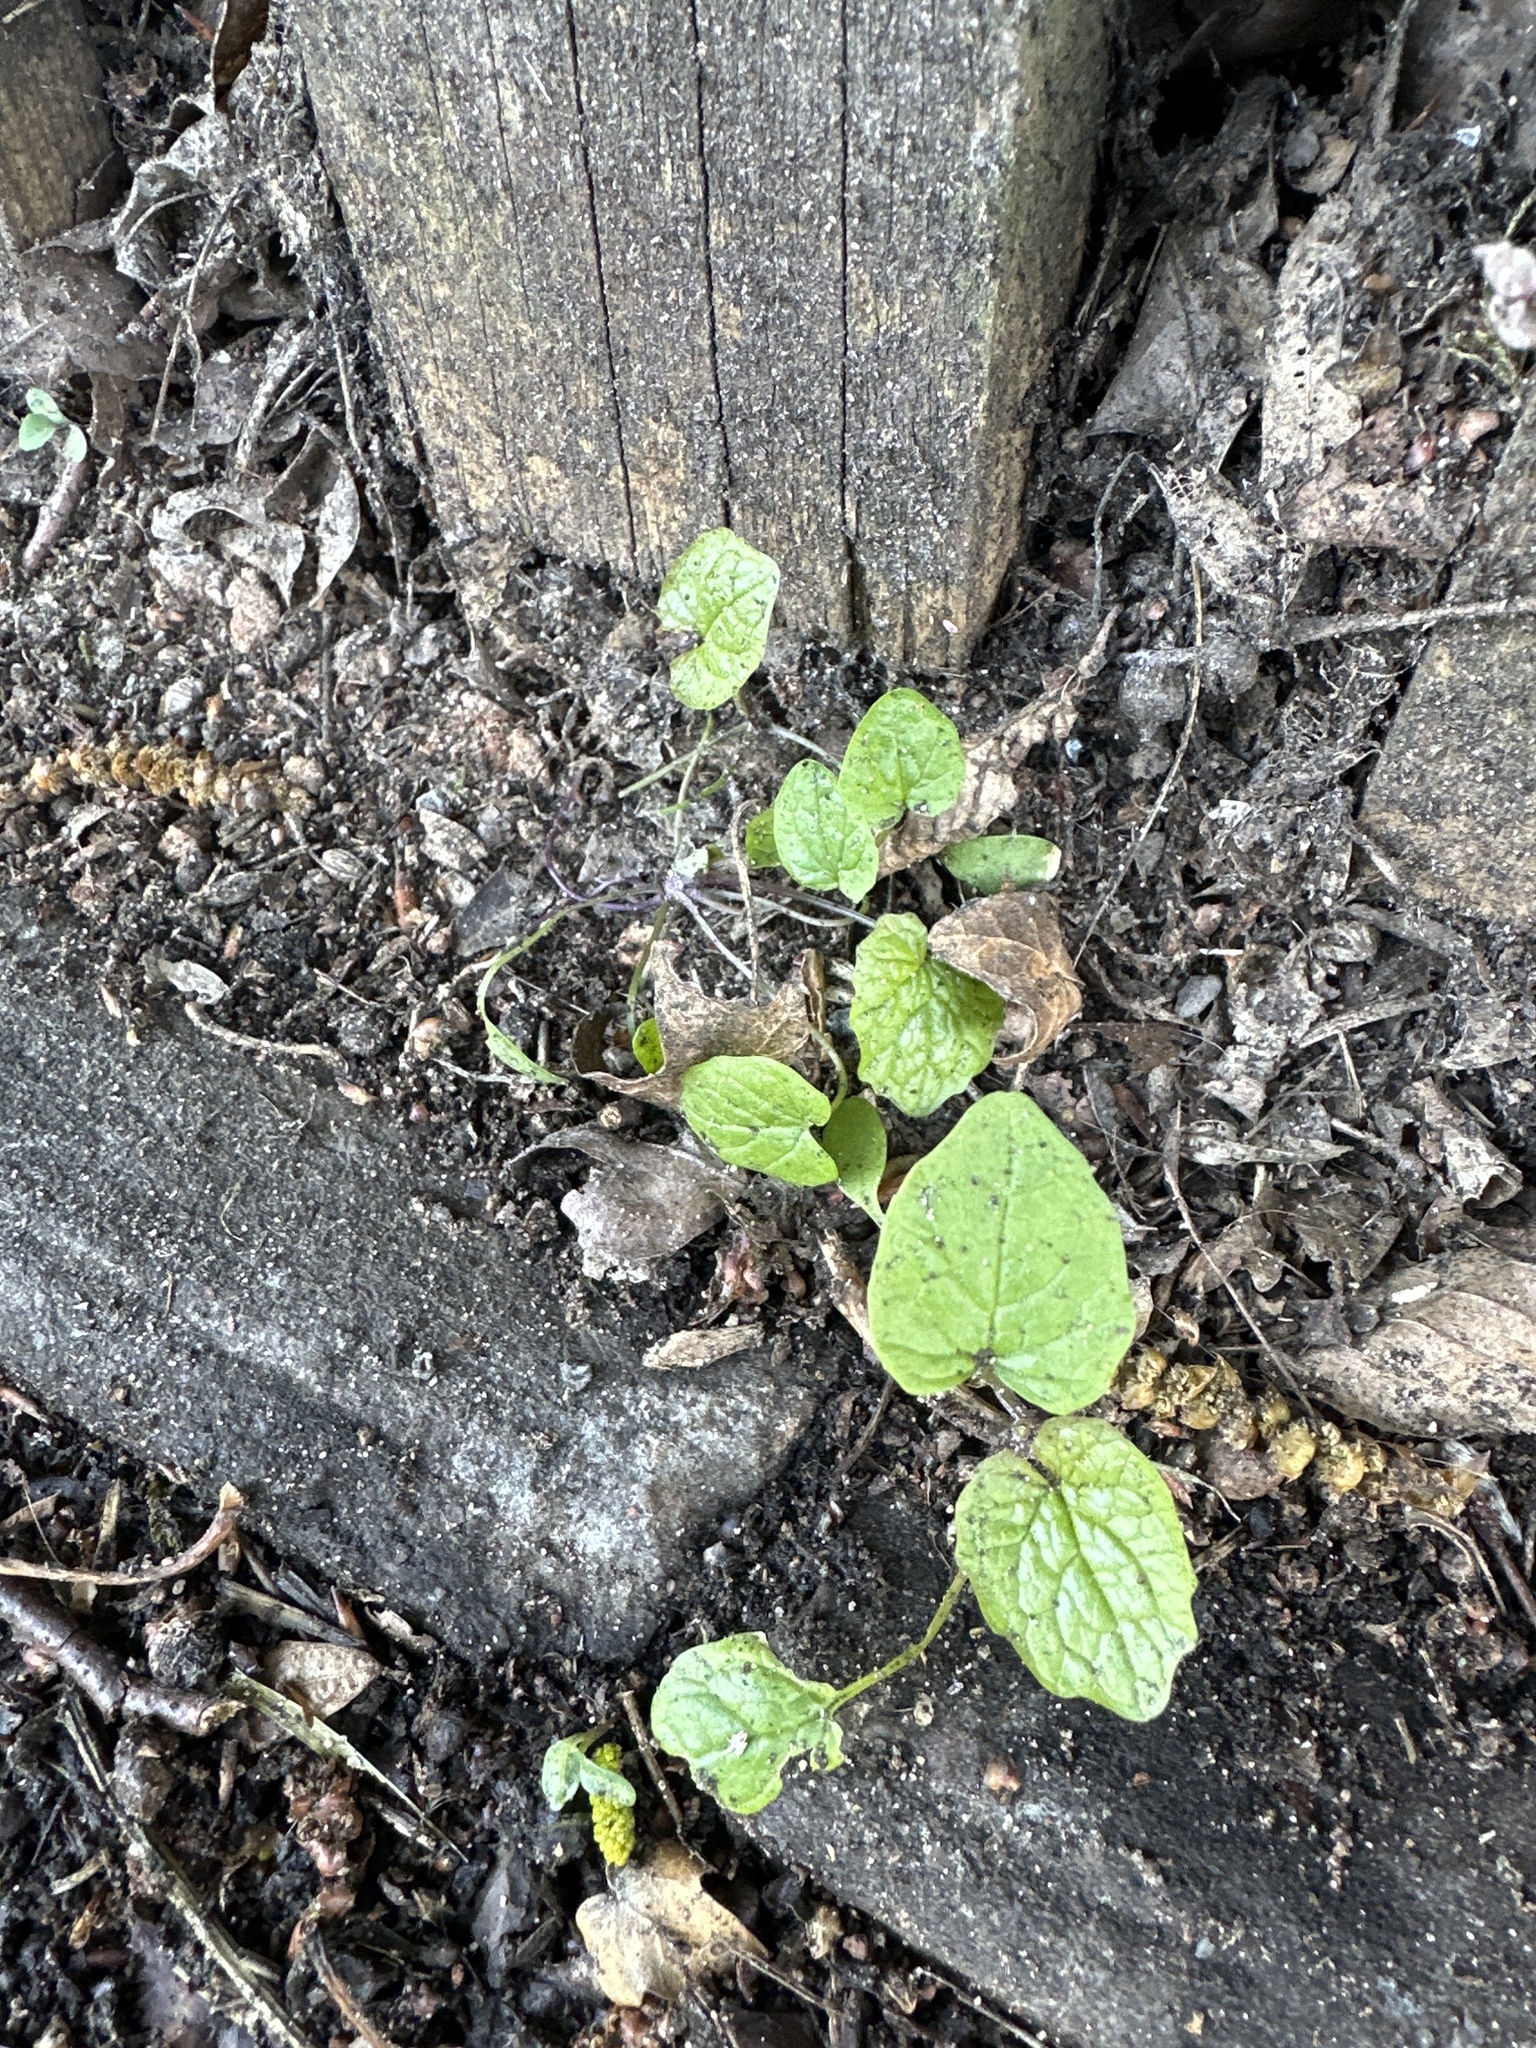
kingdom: Plantae
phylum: Tracheophyta
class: Magnoliopsida
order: Brassicales
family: Brassicaceae
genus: Alliaria
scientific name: Alliaria petiolata
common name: Garlic mustard
